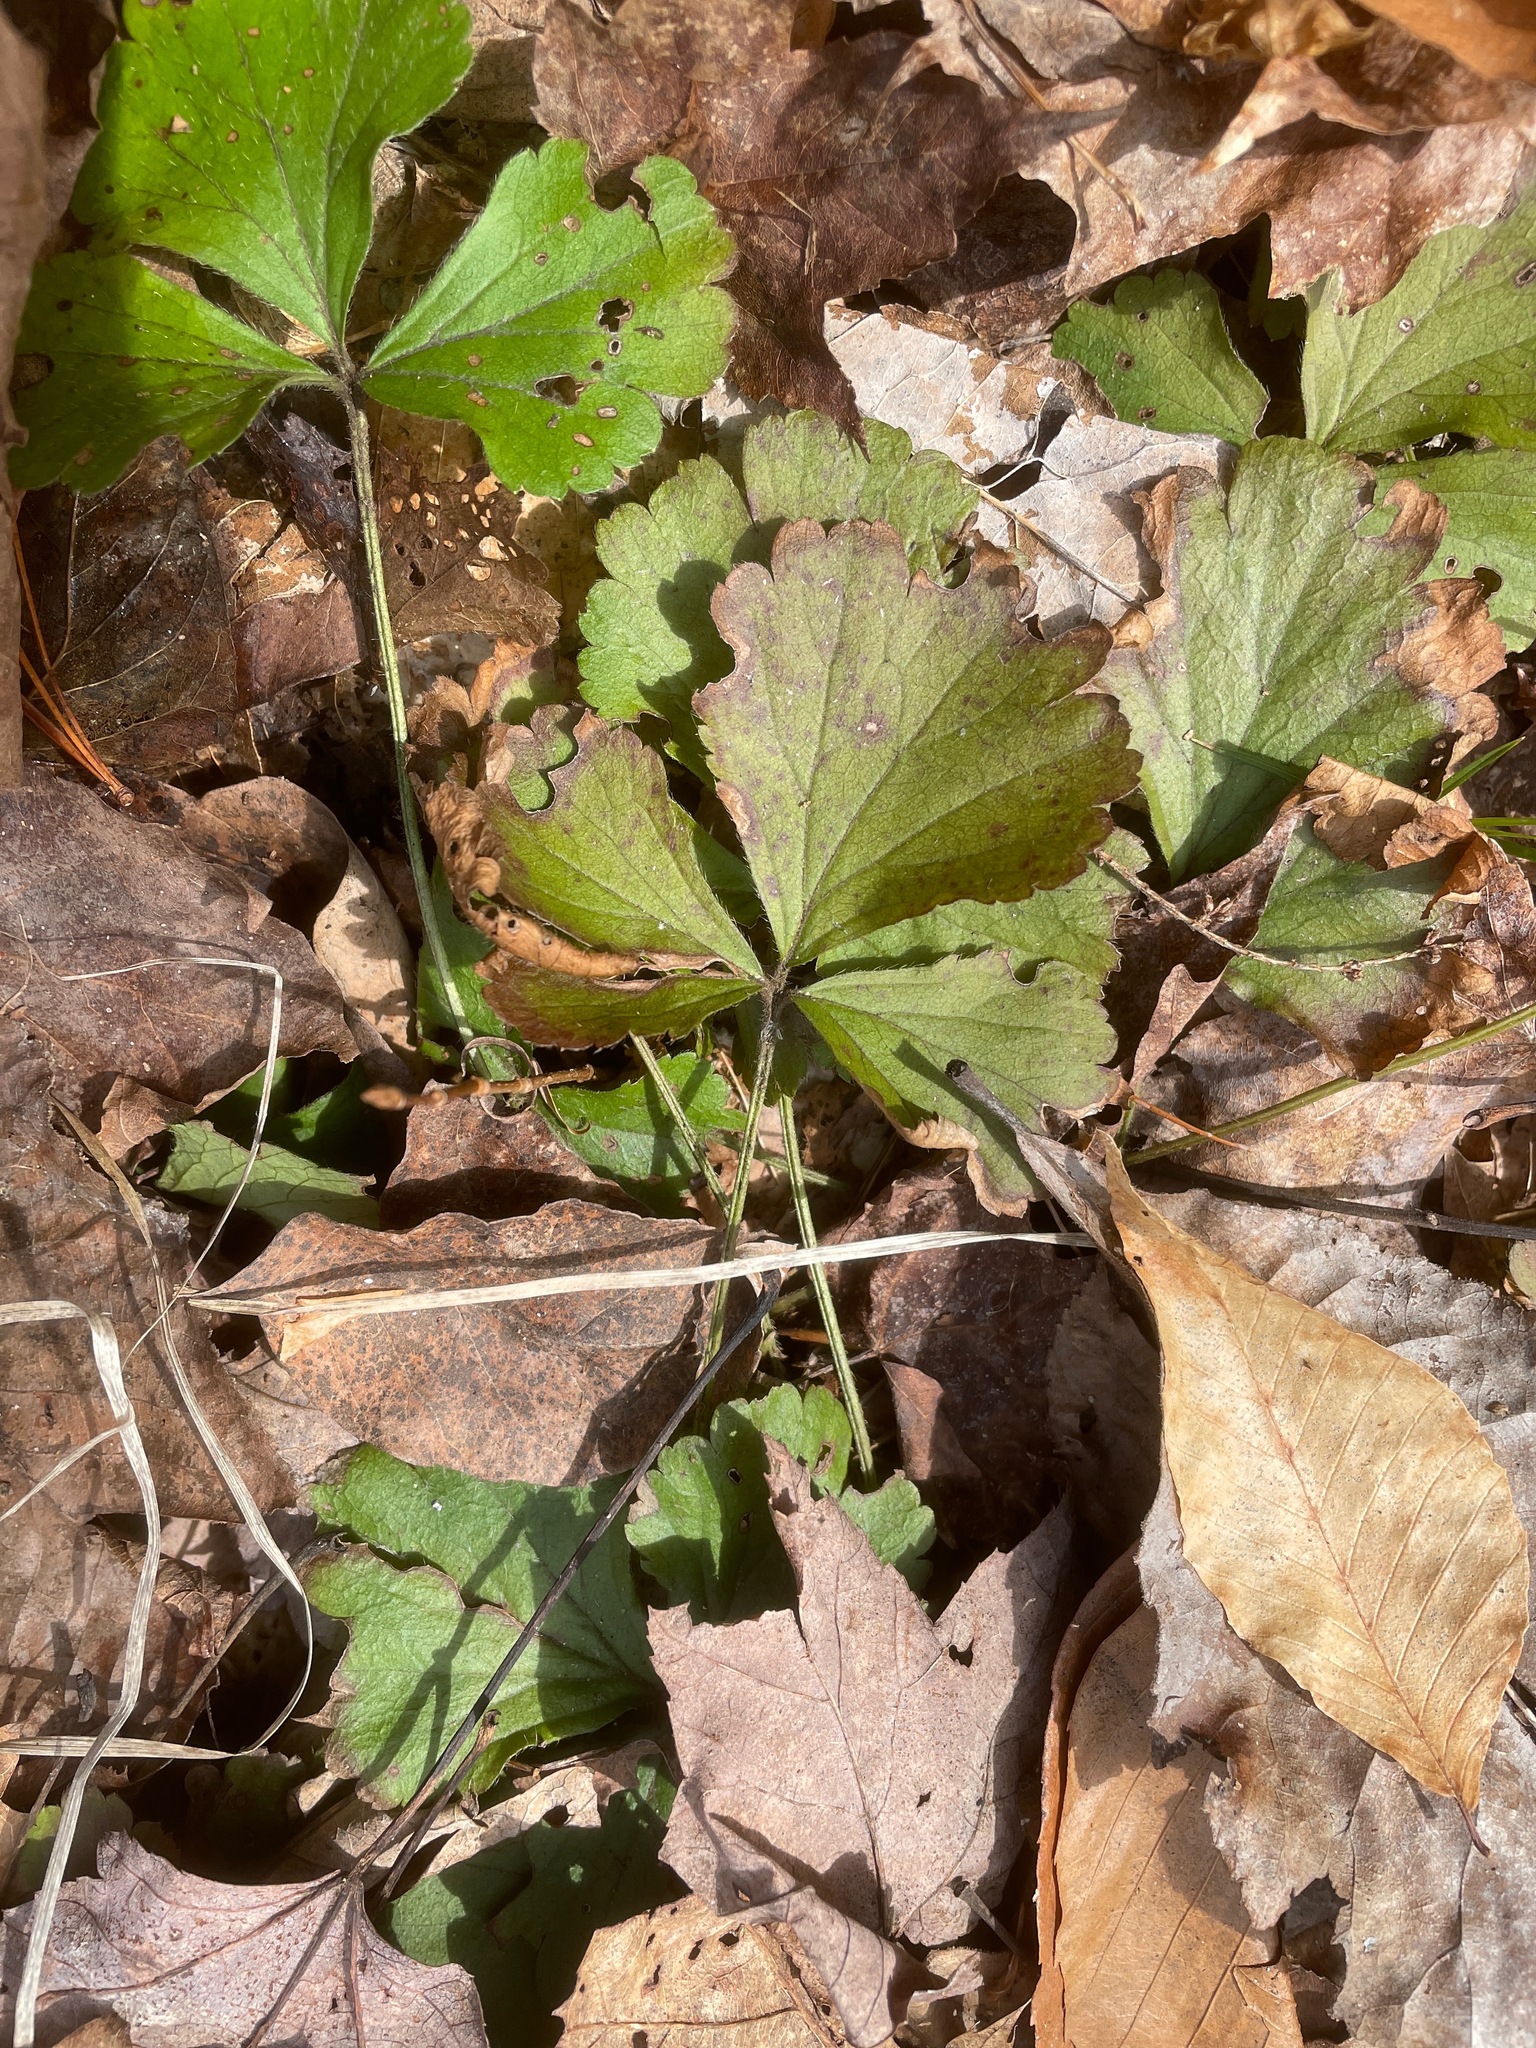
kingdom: Plantae
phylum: Tracheophyta
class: Magnoliopsida
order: Rosales
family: Rosaceae
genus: Geum
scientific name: Geum fragarioides
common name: Appalachian barren strawberry
